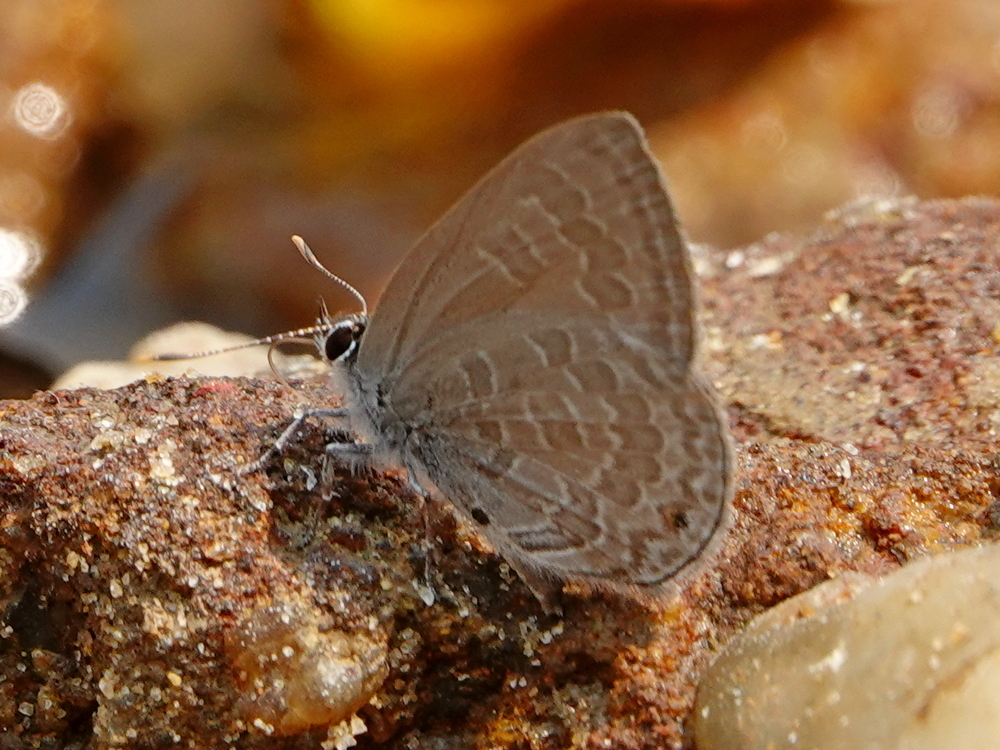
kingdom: Animalia
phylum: Arthropoda
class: Insecta
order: Lepidoptera
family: Lycaenidae
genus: Anthene
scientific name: Anthene emolus
